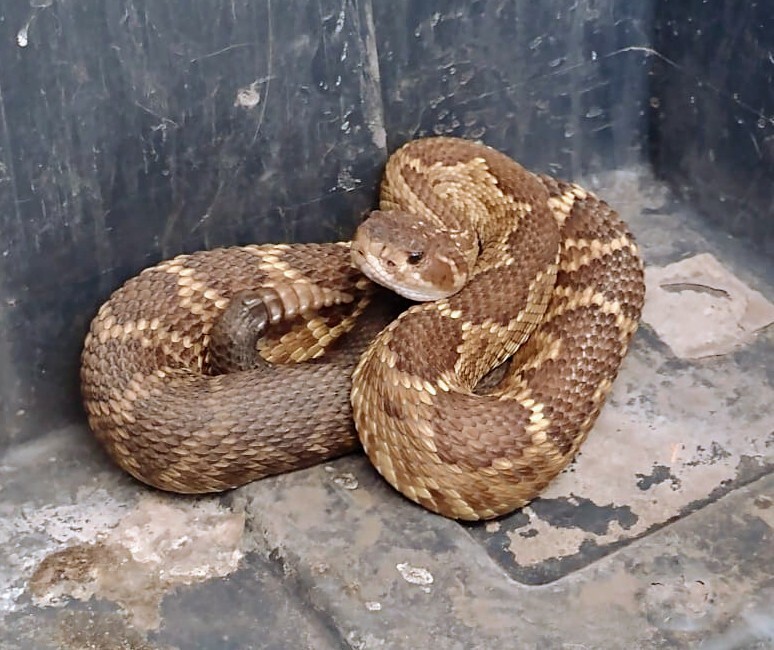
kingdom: Animalia
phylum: Chordata
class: Squamata
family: Viperidae
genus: Crotalus
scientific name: Crotalus molossus
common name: Black tailed rattlesnake
